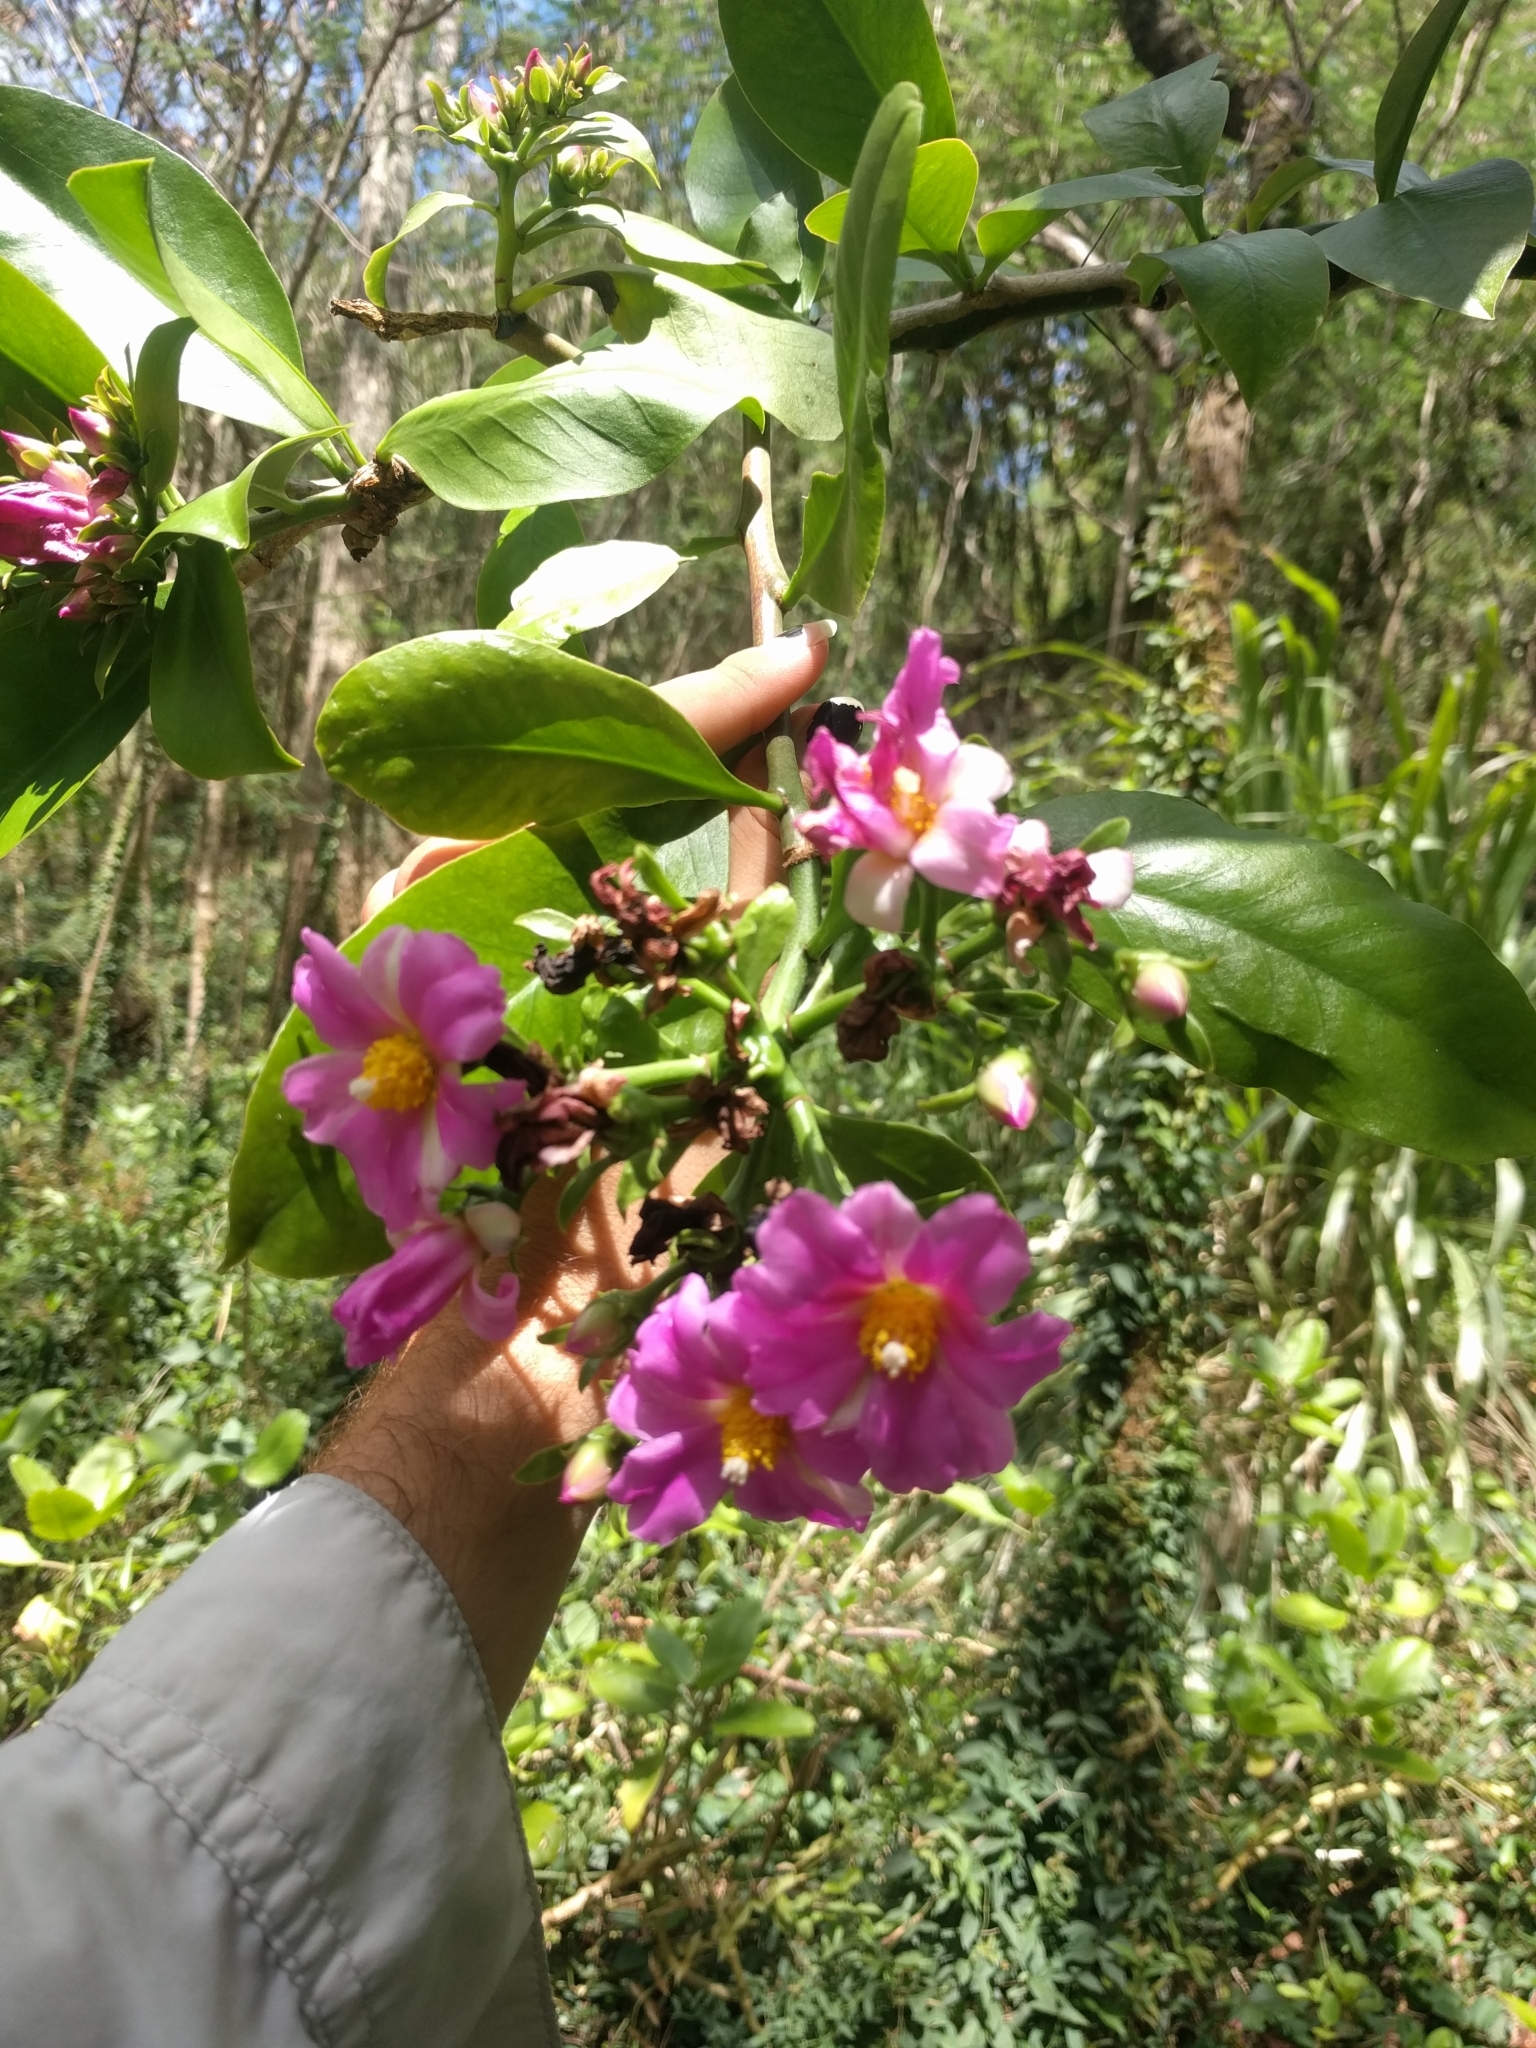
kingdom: Plantae
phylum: Tracheophyta
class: Magnoliopsida
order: Caryophyllales
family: Cactaceae
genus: Pereskia
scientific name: Pereskia grandifolia
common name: Rose cactus
